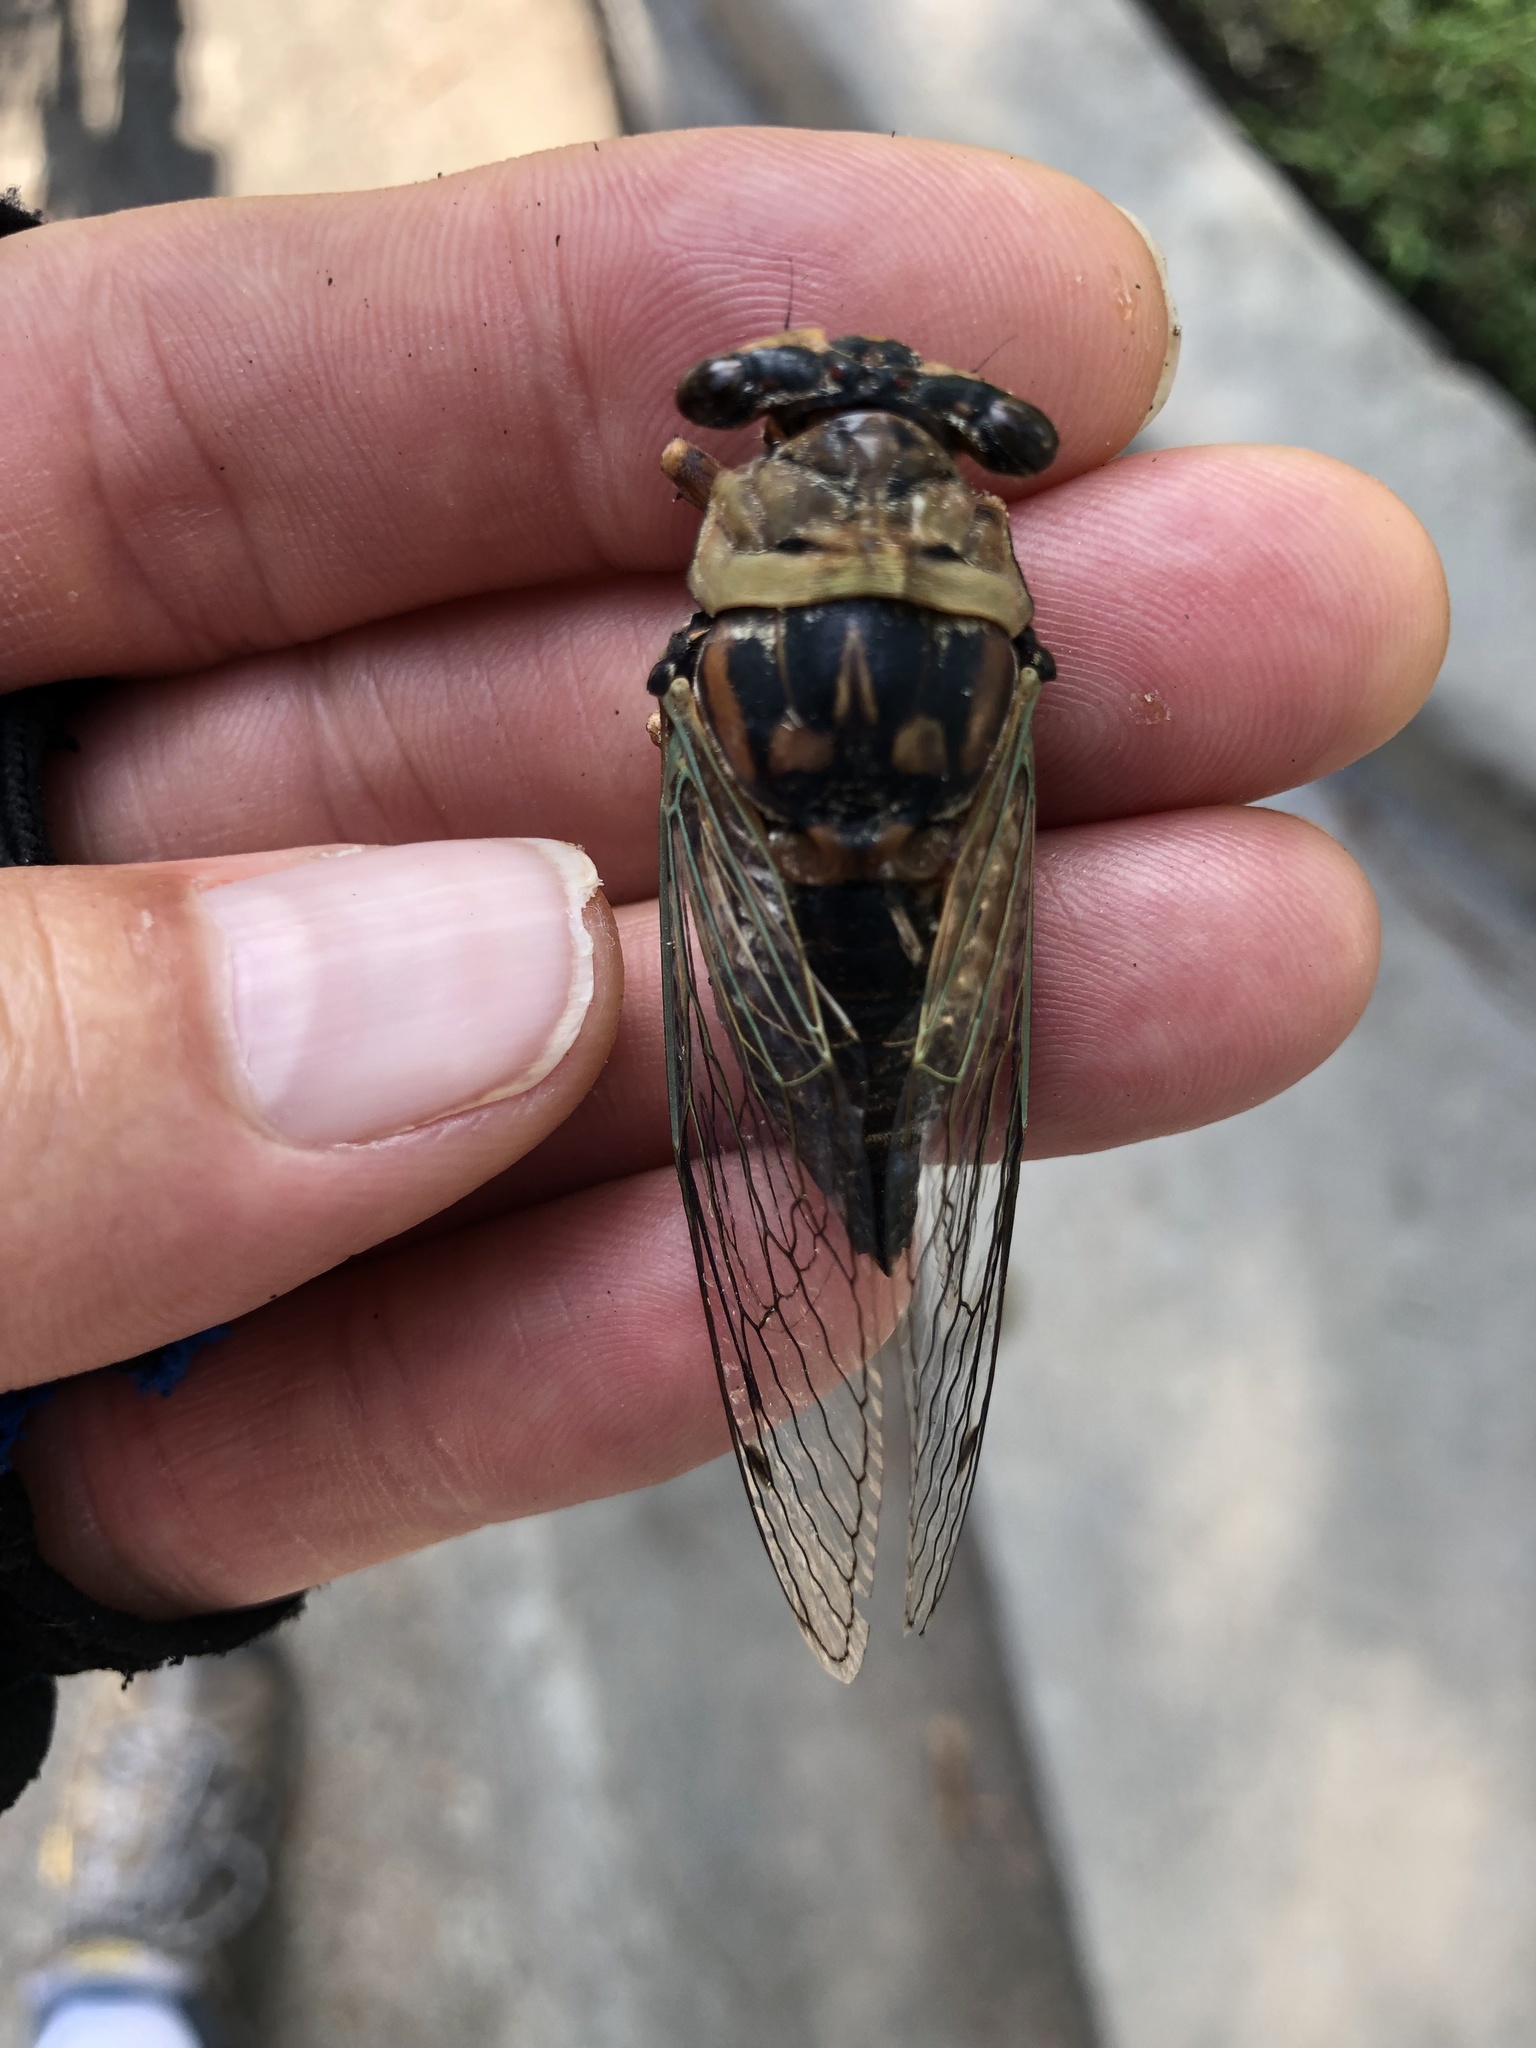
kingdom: Animalia
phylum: Arthropoda
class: Insecta
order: Hemiptera
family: Cicadidae
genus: Megatibicen
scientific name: Megatibicen resh
